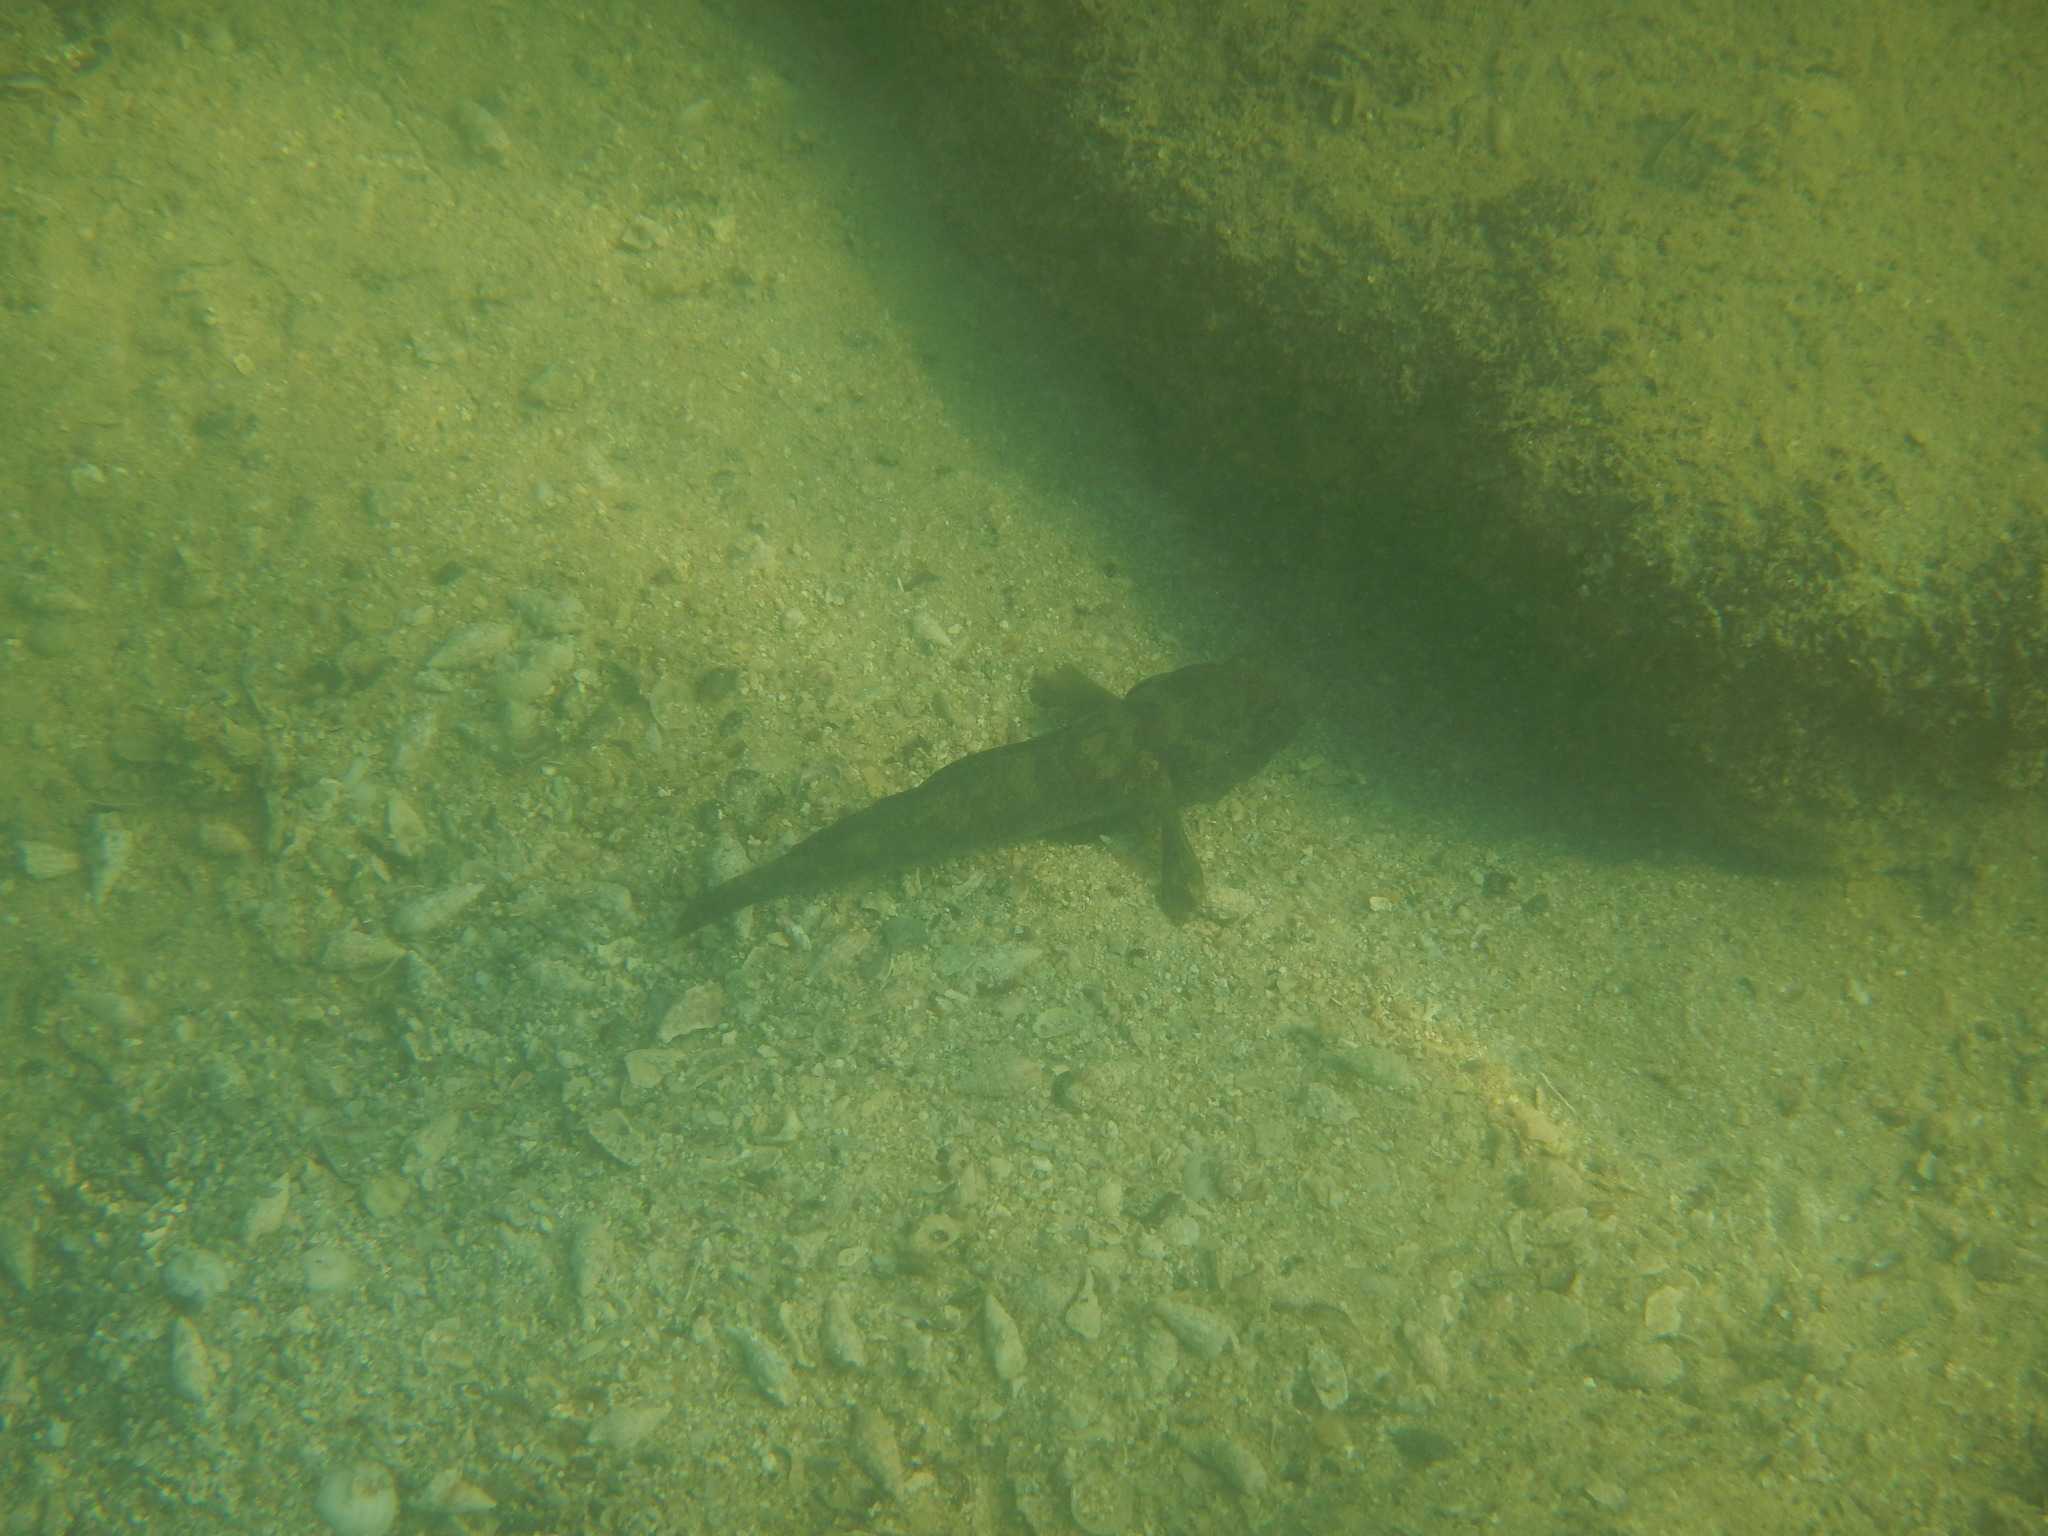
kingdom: Animalia
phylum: Chordata
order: Perciformes
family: Gobiidae
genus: Gobius
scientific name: Gobius niger
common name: Black goby
